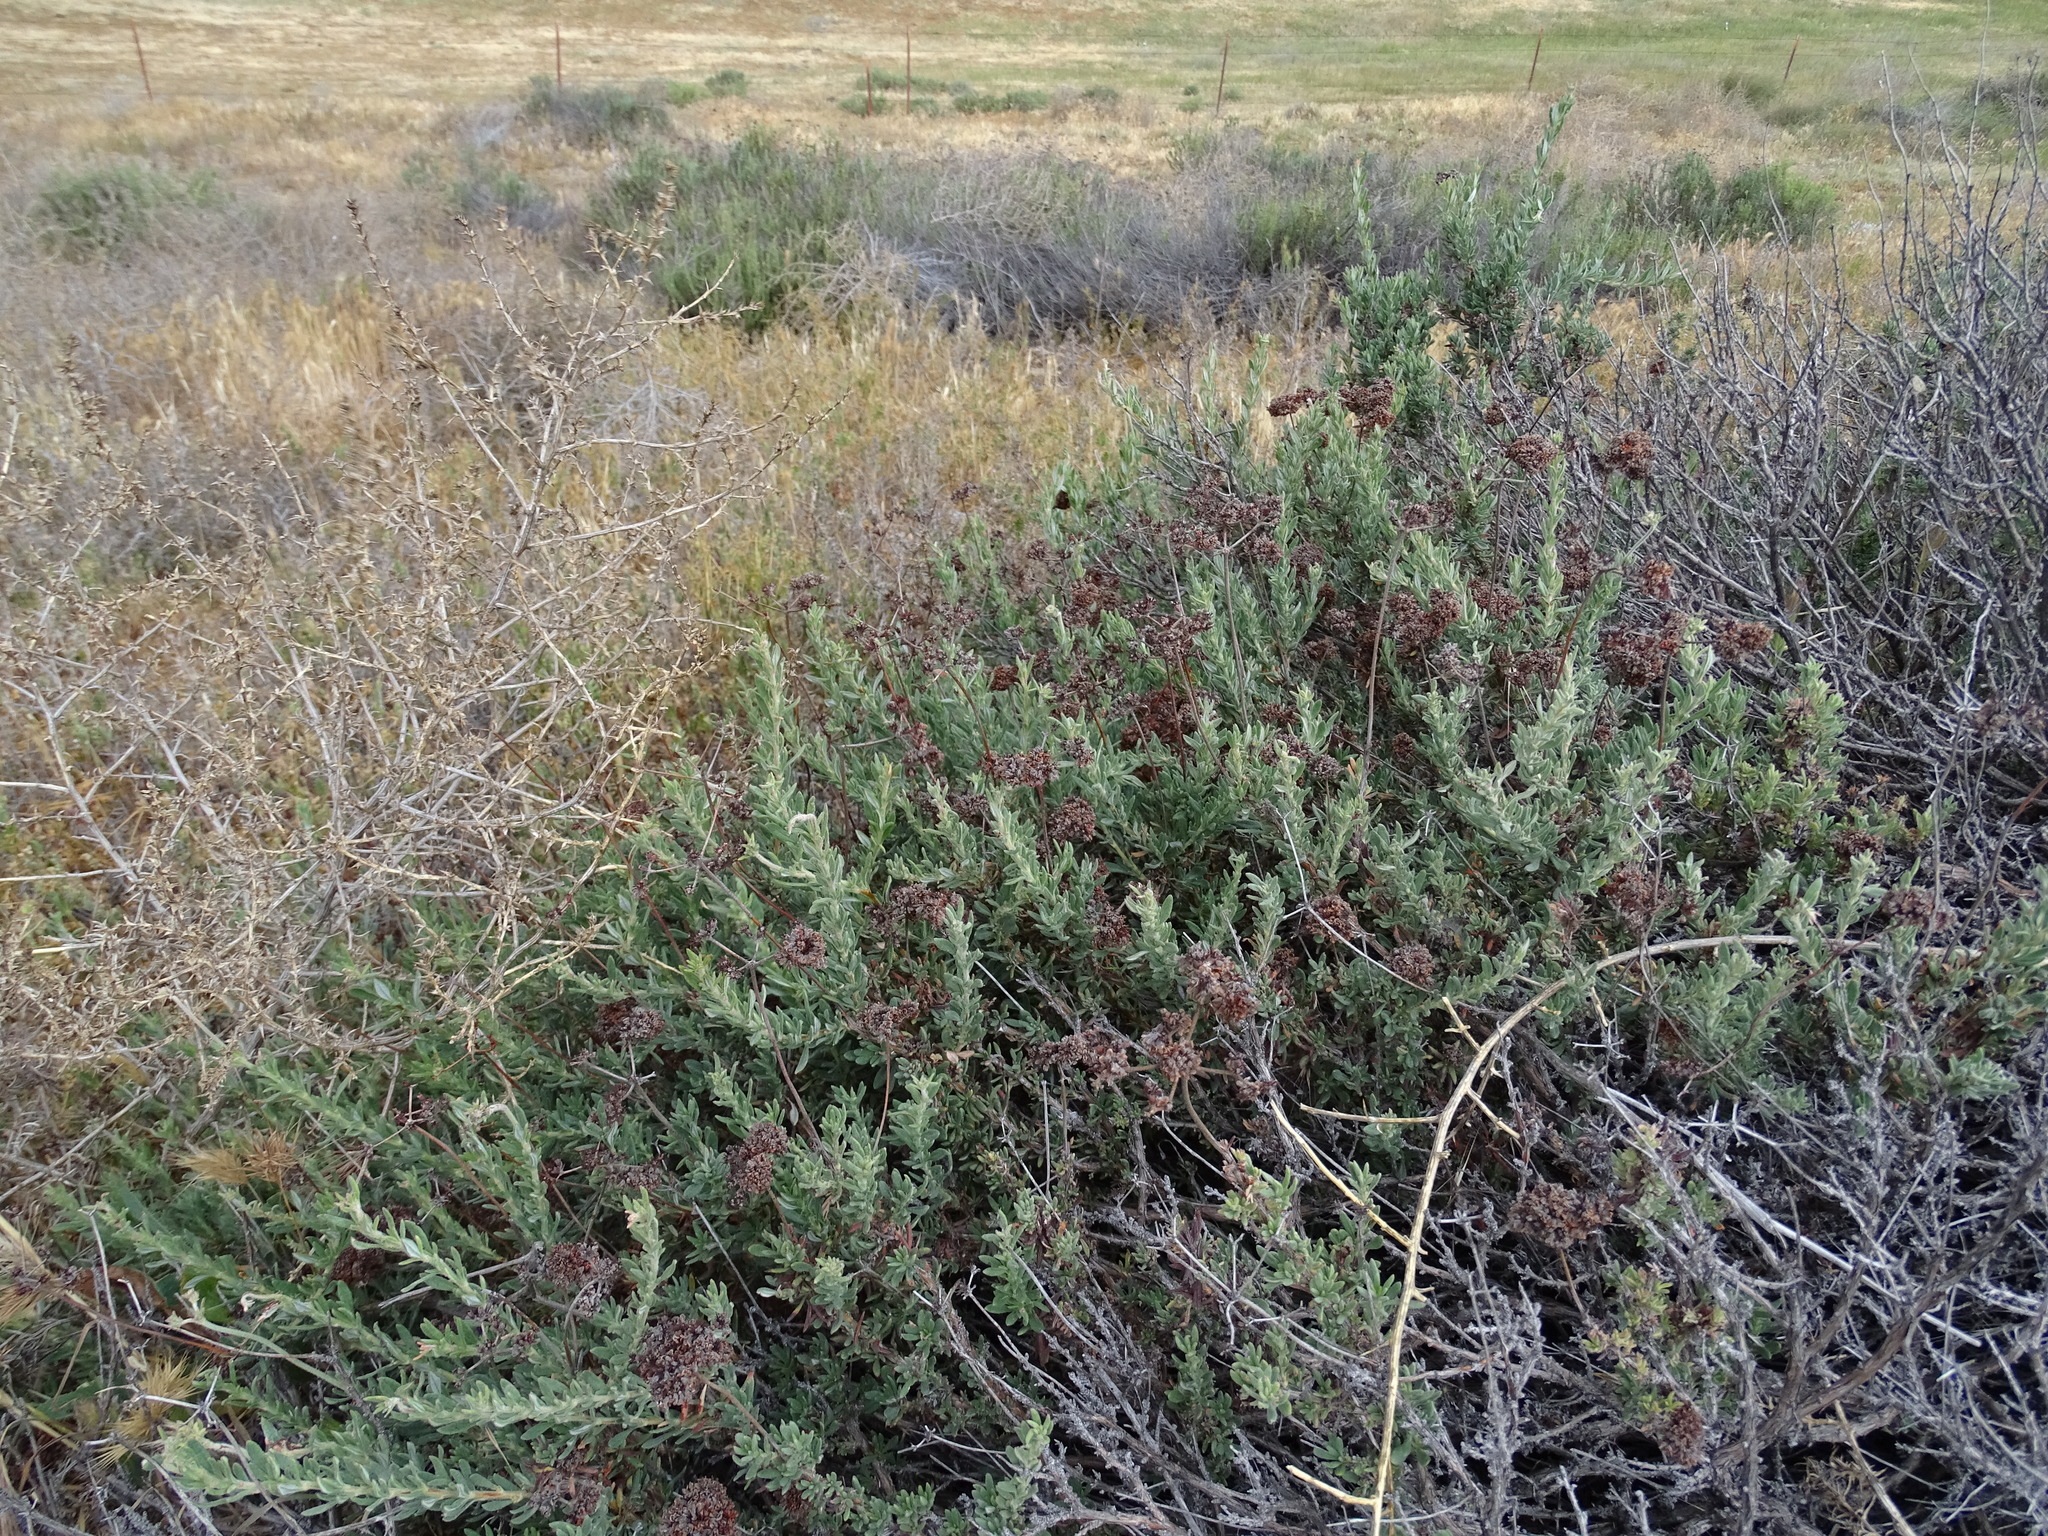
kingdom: Plantae
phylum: Tracheophyta
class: Magnoliopsida
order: Caryophyllales
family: Polygonaceae
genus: Eriogonum
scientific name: Eriogonum fasciculatum
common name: California wild buckwheat
